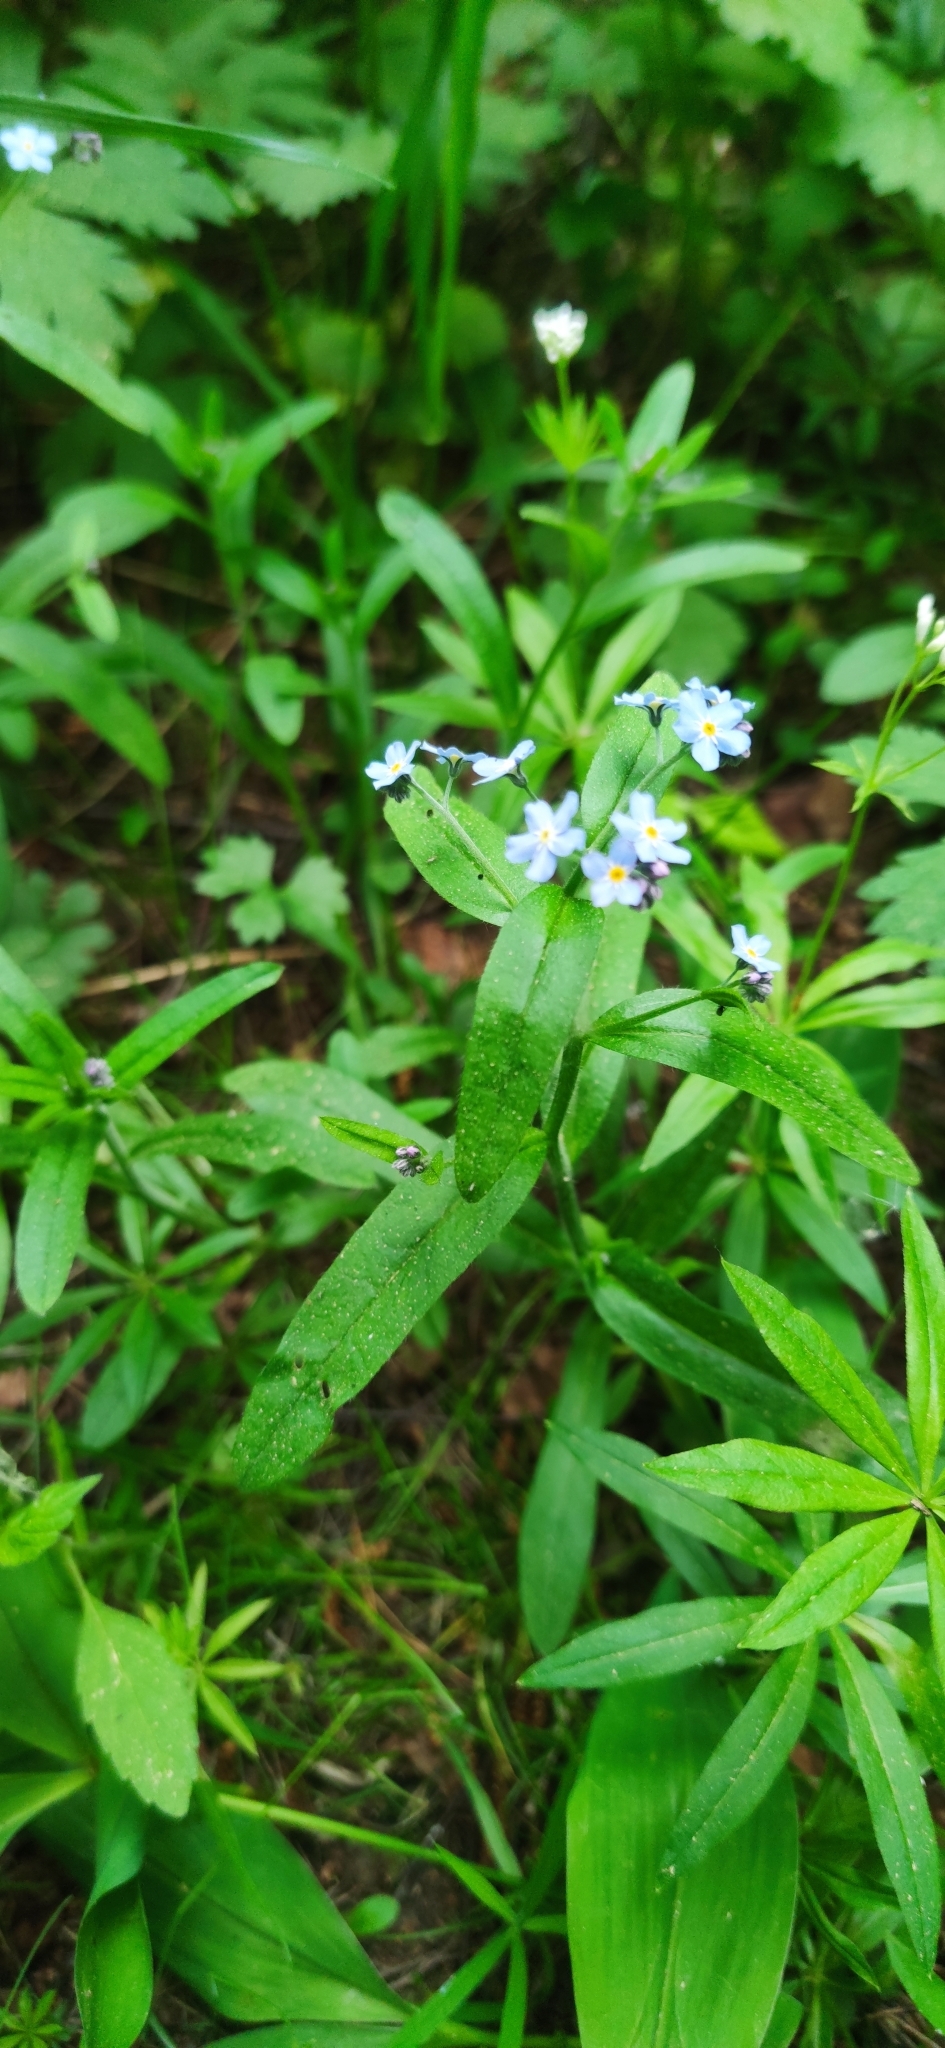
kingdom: Plantae
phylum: Tracheophyta
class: Magnoliopsida
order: Boraginales
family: Boraginaceae
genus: Myosotis
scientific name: Myosotis sylvatica
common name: Wood forget-me-not
